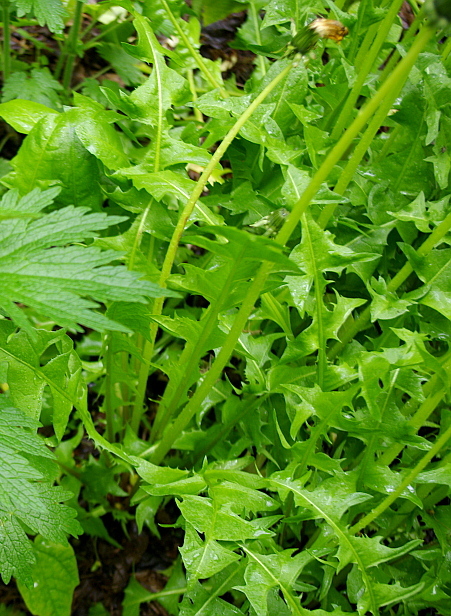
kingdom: Plantae
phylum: Tracheophyta
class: Magnoliopsida
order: Asterales
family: Asteraceae
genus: Taraxacum
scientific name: Taraxacum officinale
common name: Common dandelion
